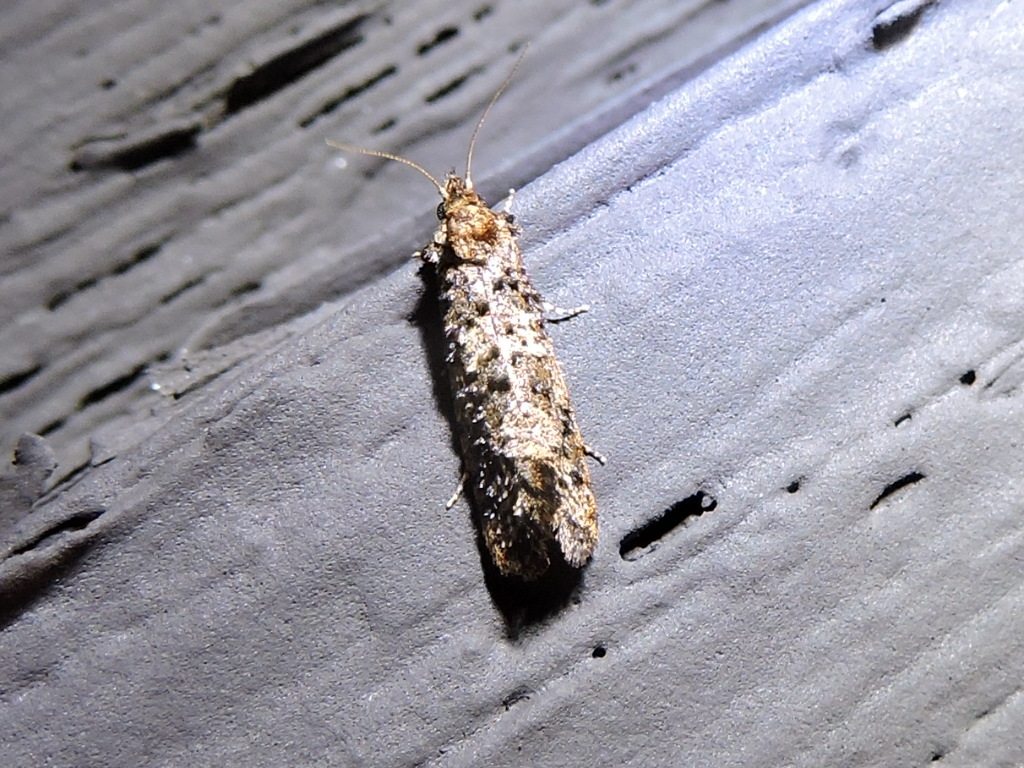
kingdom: Animalia
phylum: Arthropoda
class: Insecta
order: Lepidoptera
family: Tineidae
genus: Acrolophus
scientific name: Acrolophus cressoni
